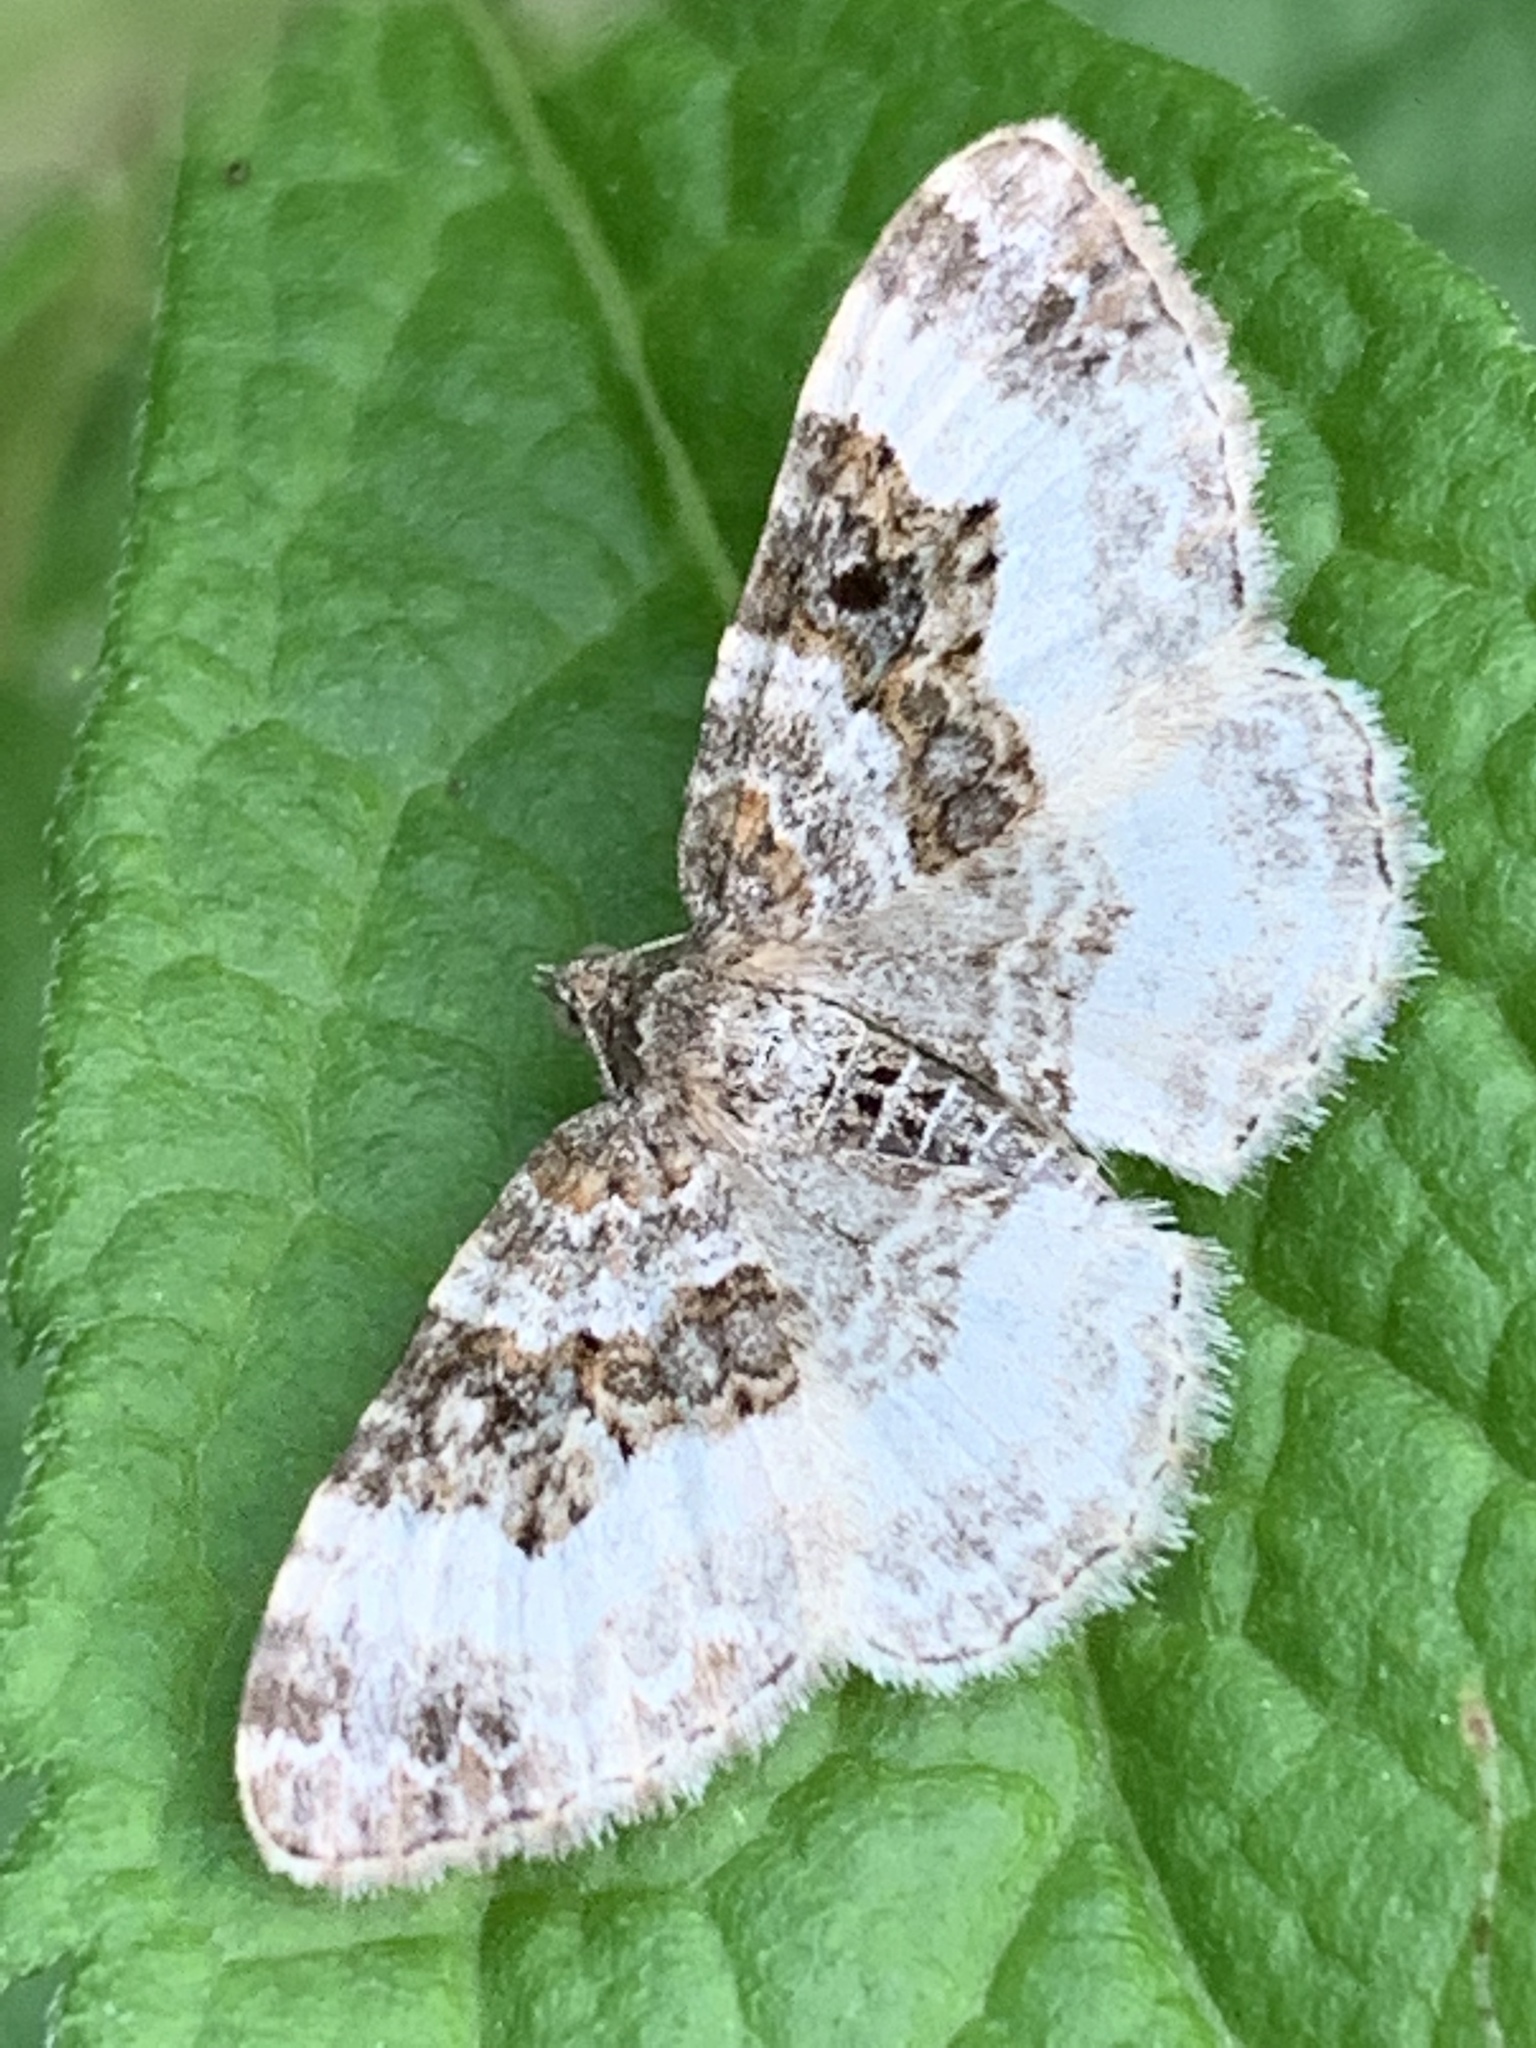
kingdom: Animalia
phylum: Arthropoda
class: Insecta
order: Lepidoptera
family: Geometridae
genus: Epirrhoe
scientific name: Epirrhoe alternata
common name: Common carpet
